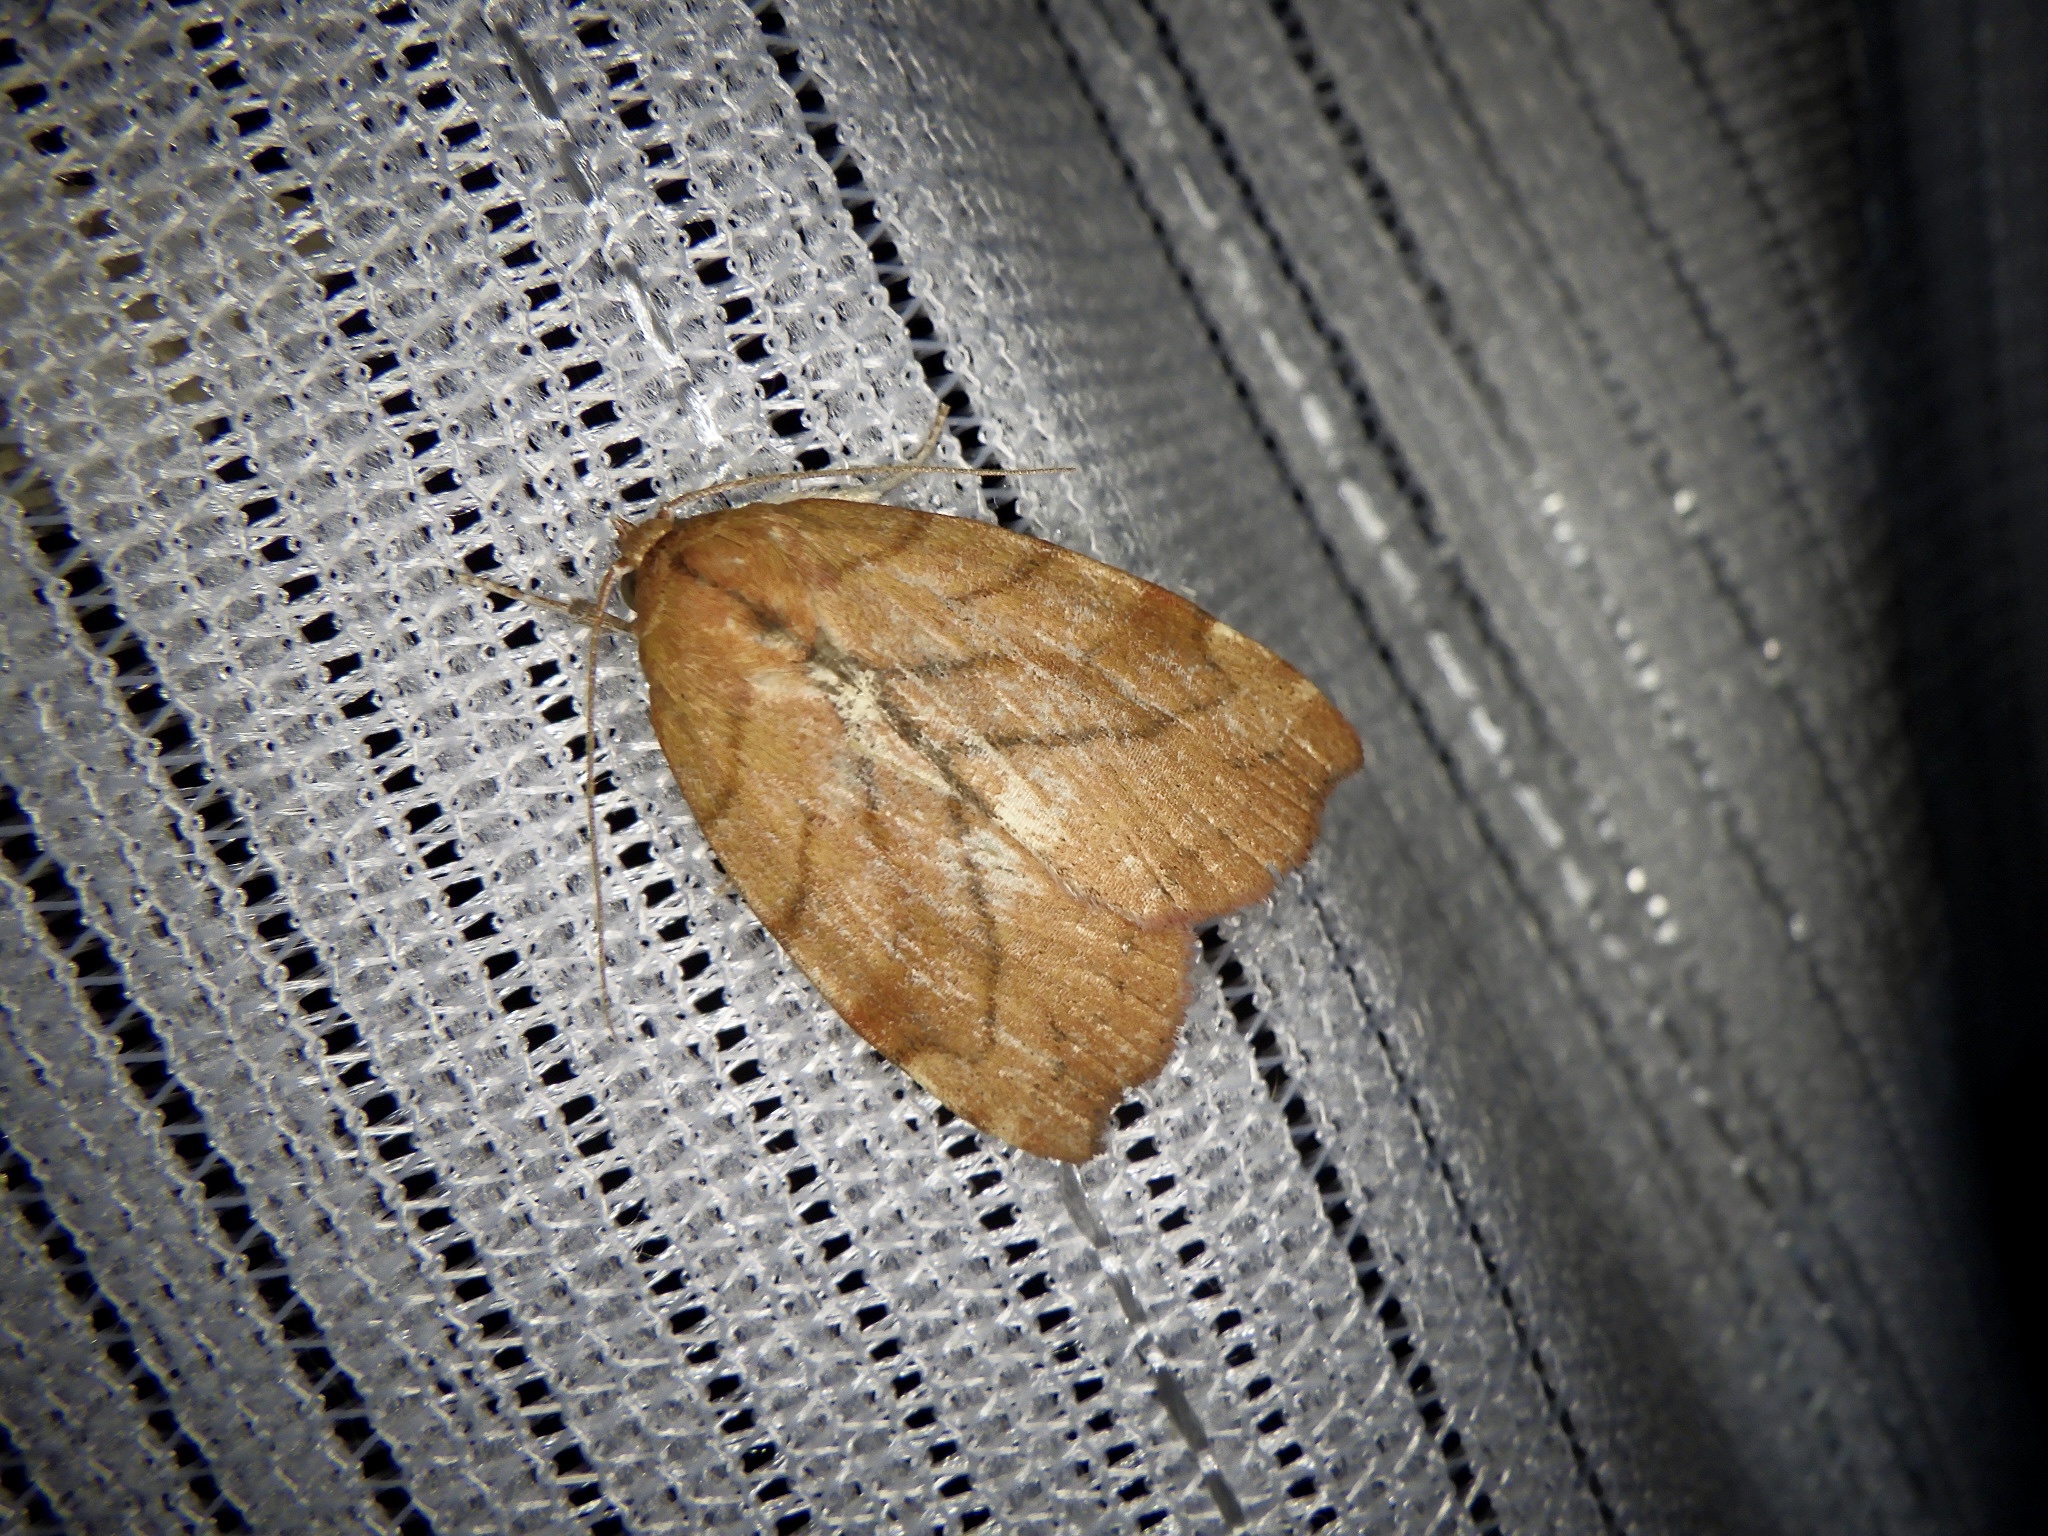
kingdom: Animalia
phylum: Arthropoda
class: Insecta
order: Lepidoptera
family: Nolidae
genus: Macrochthonia
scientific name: Macrochthonia fervens
